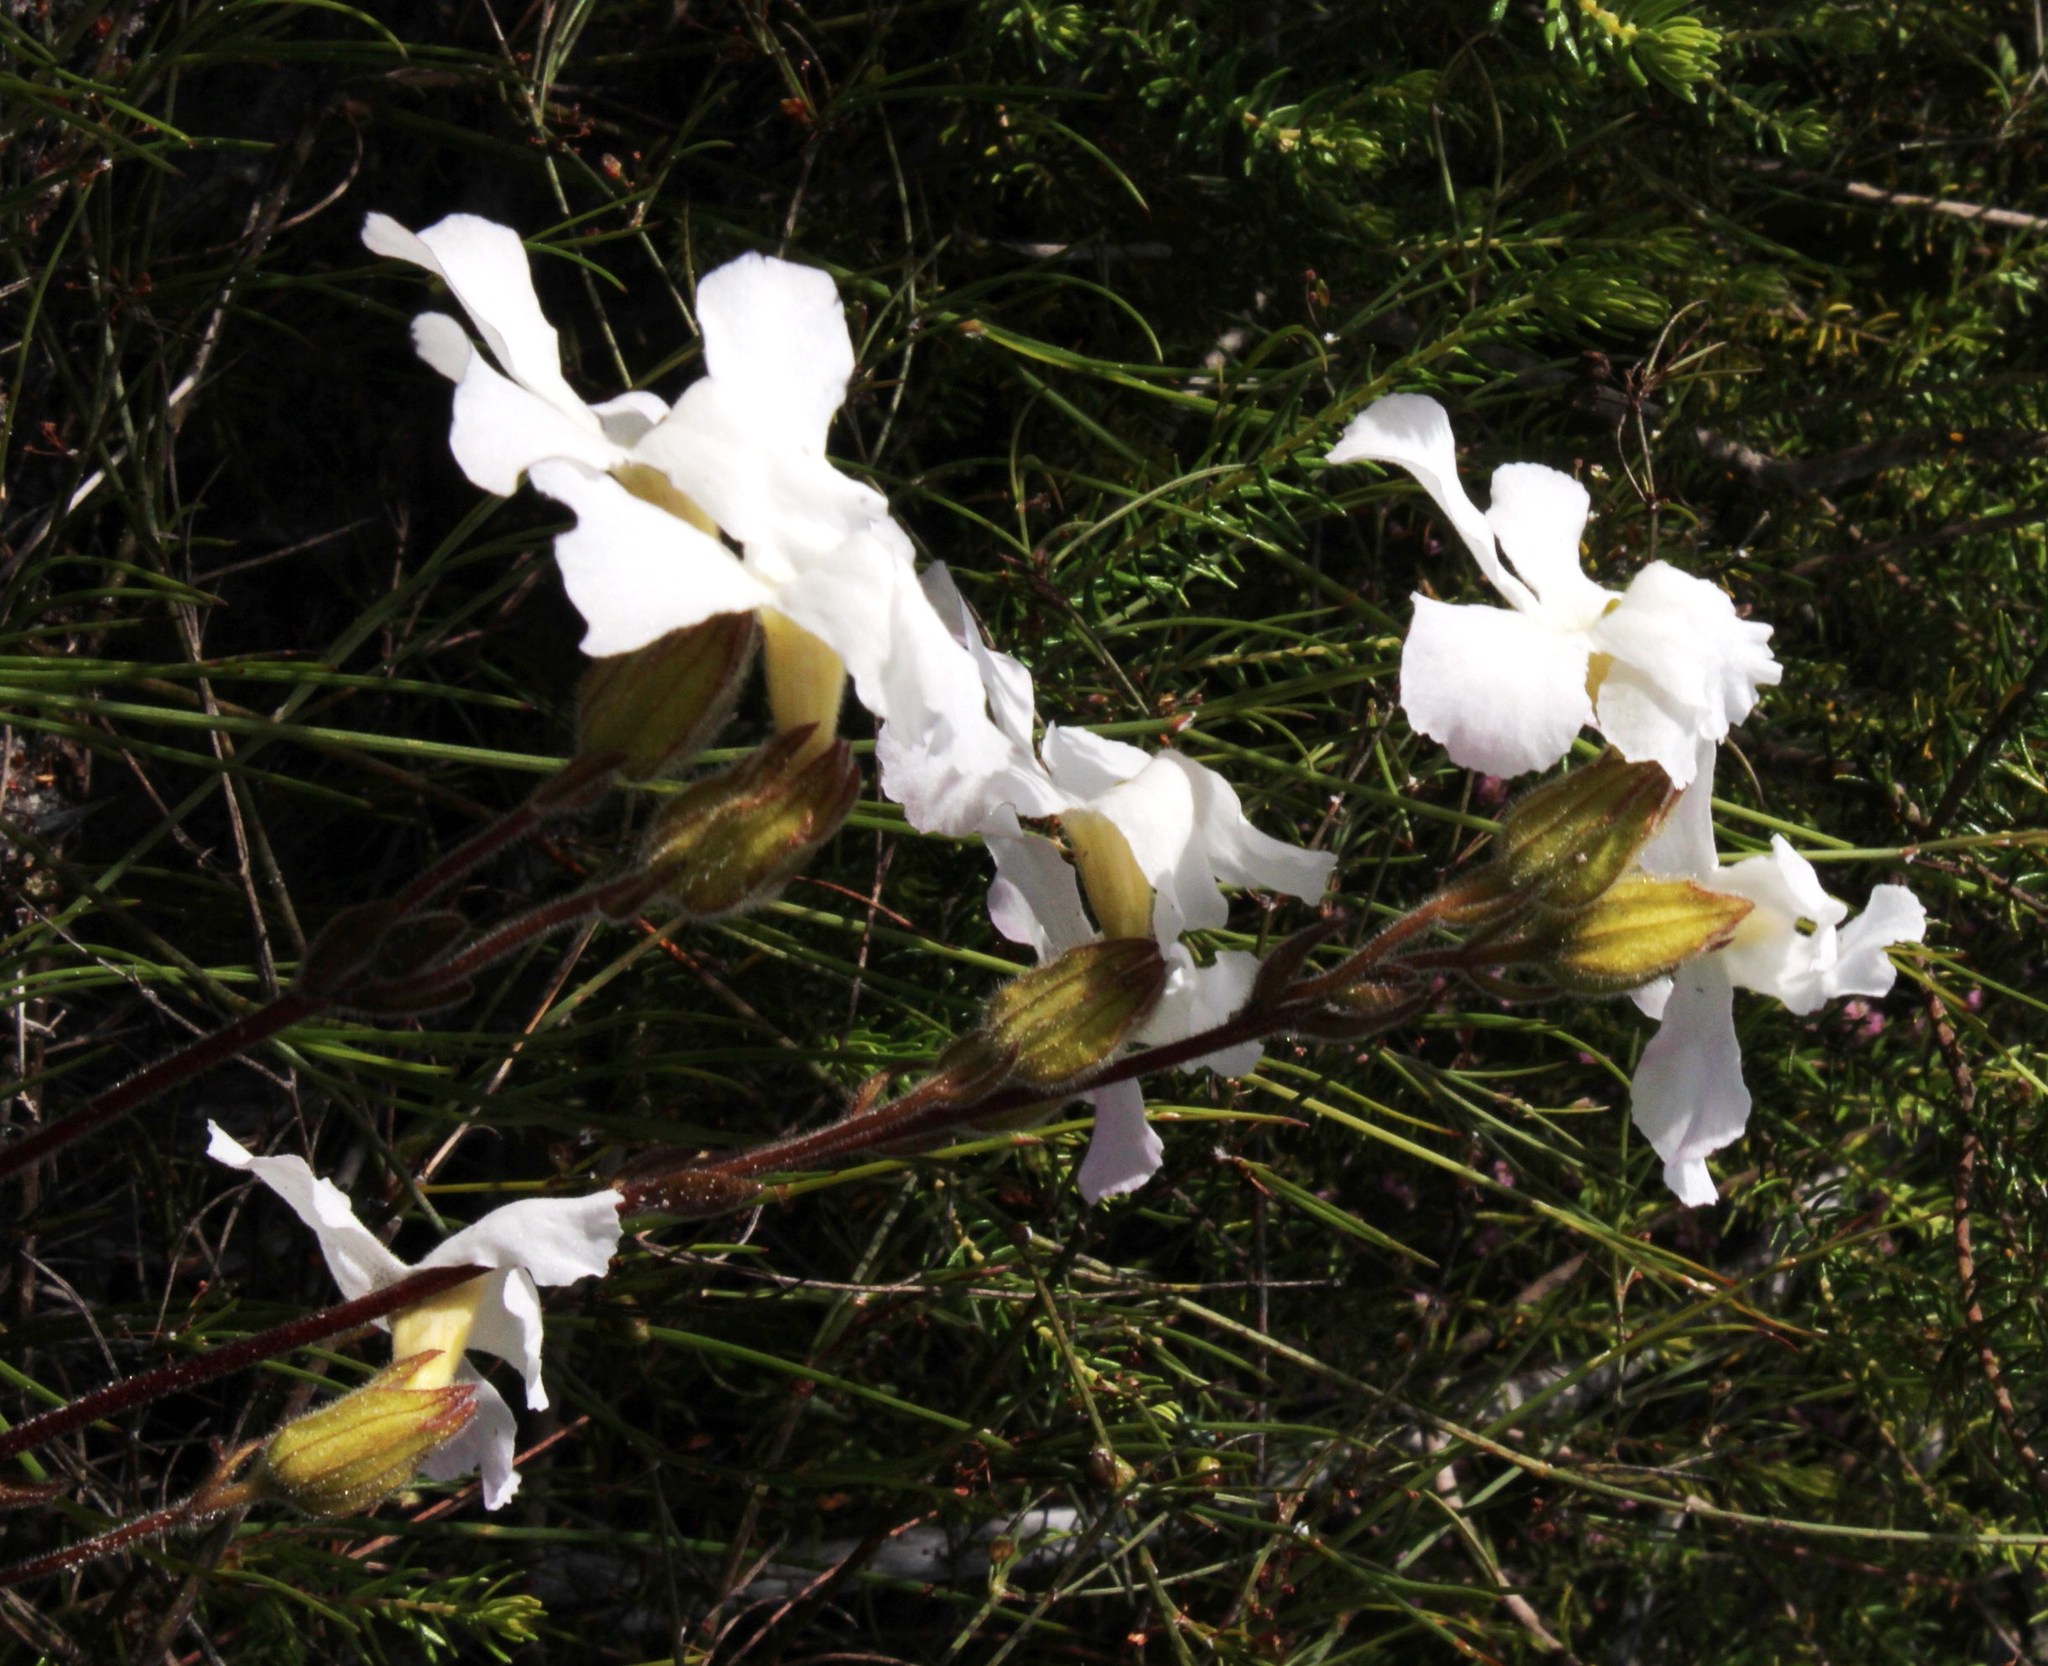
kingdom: Plantae
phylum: Tracheophyta
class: Magnoliopsida
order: Lamiales
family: Orobanchaceae
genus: Harveya
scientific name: Harveya capensis
